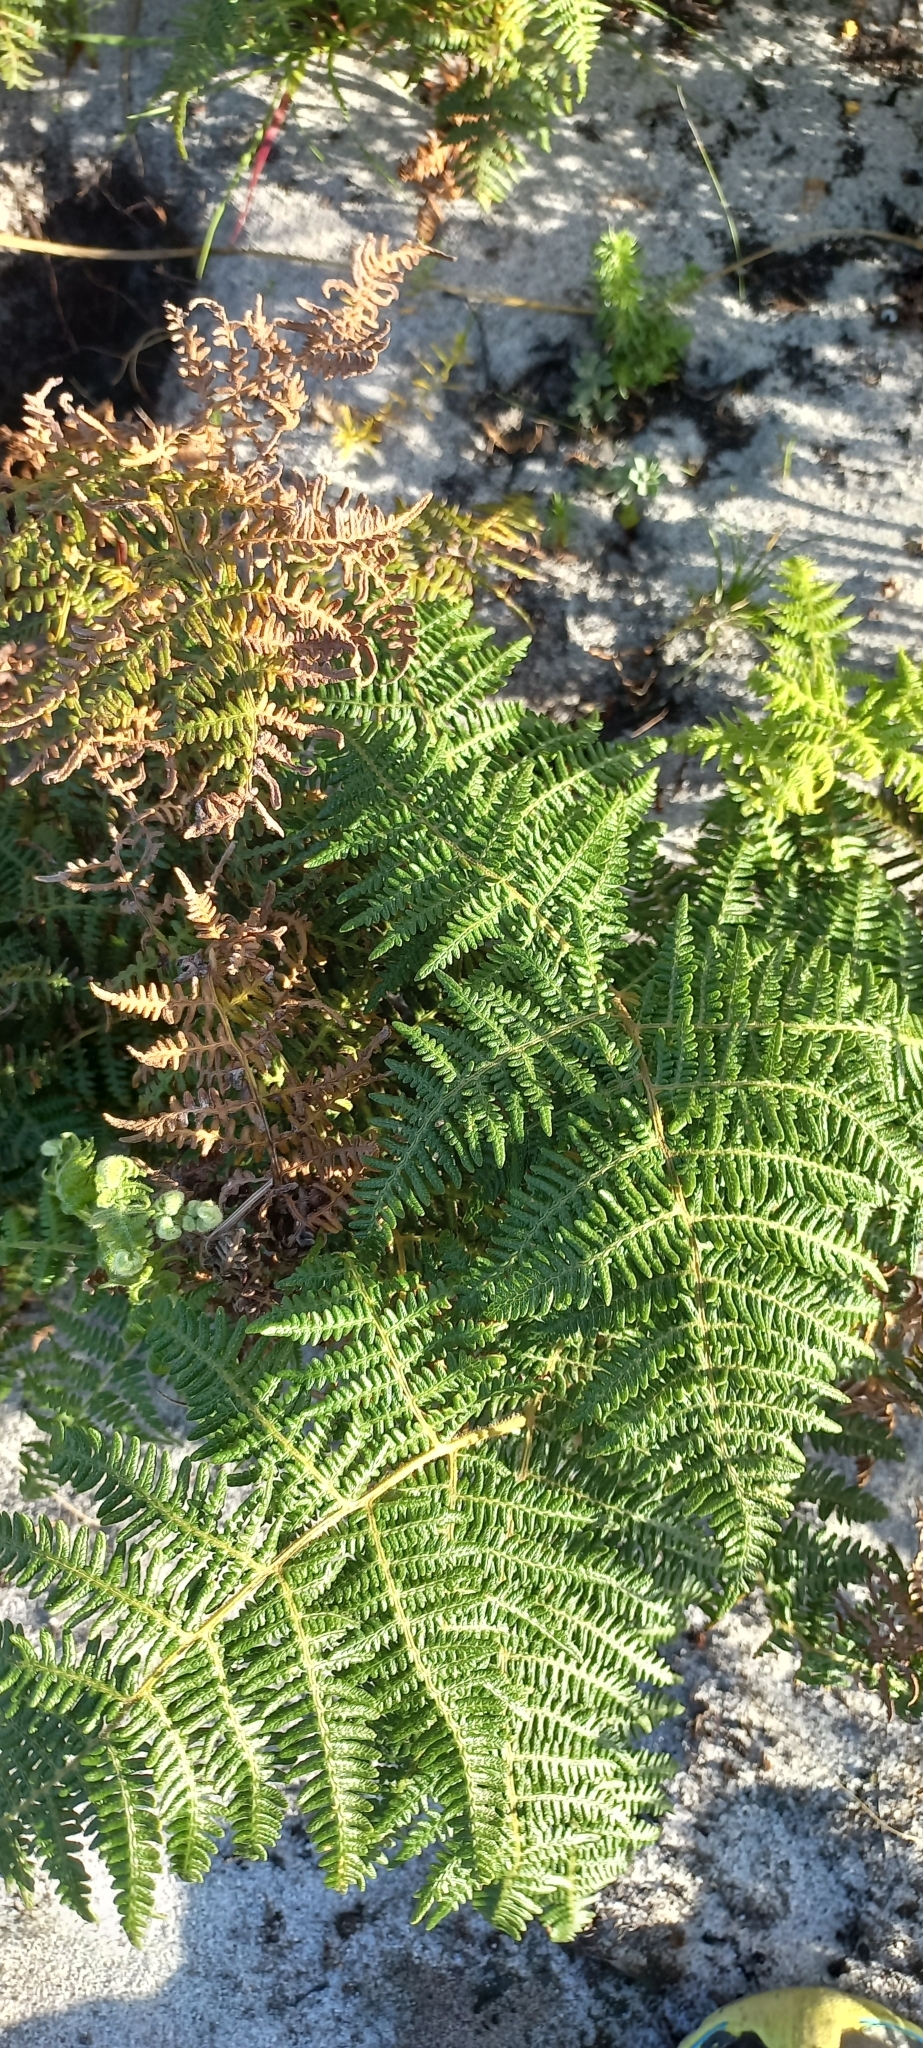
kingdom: Plantae
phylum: Tracheophyta
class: Polypodiopsida
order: Polypodiales
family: Dennstaedtiaceae
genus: Pteridium
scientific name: Pteridium aquilinum
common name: Bracken
